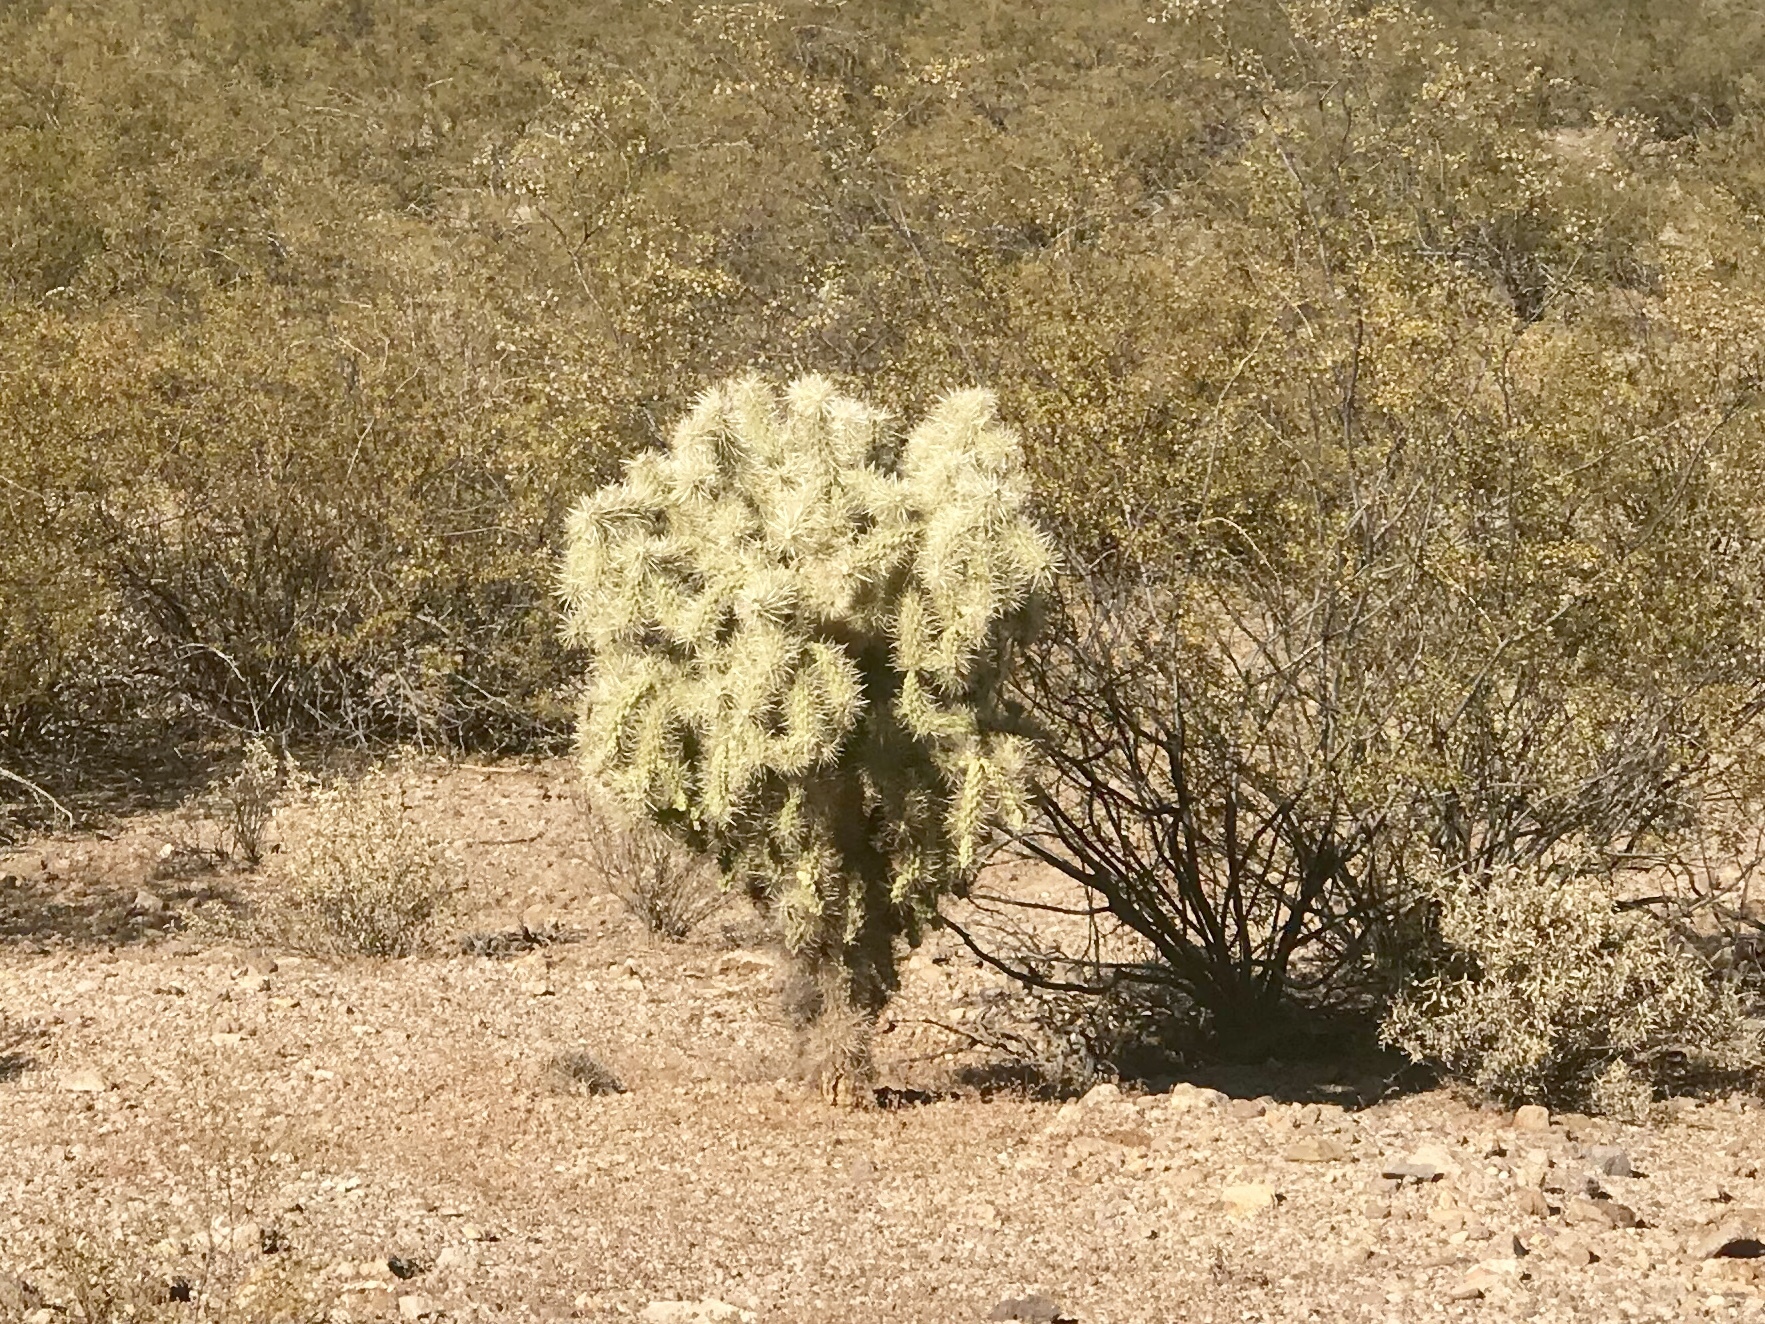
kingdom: Plantae
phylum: Tracheophyta
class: Magnoliopsida
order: Caryophyllales
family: Cactaceae
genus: Cylindropuntia
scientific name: Cylindropuntia fulgida
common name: Jumping cholla
